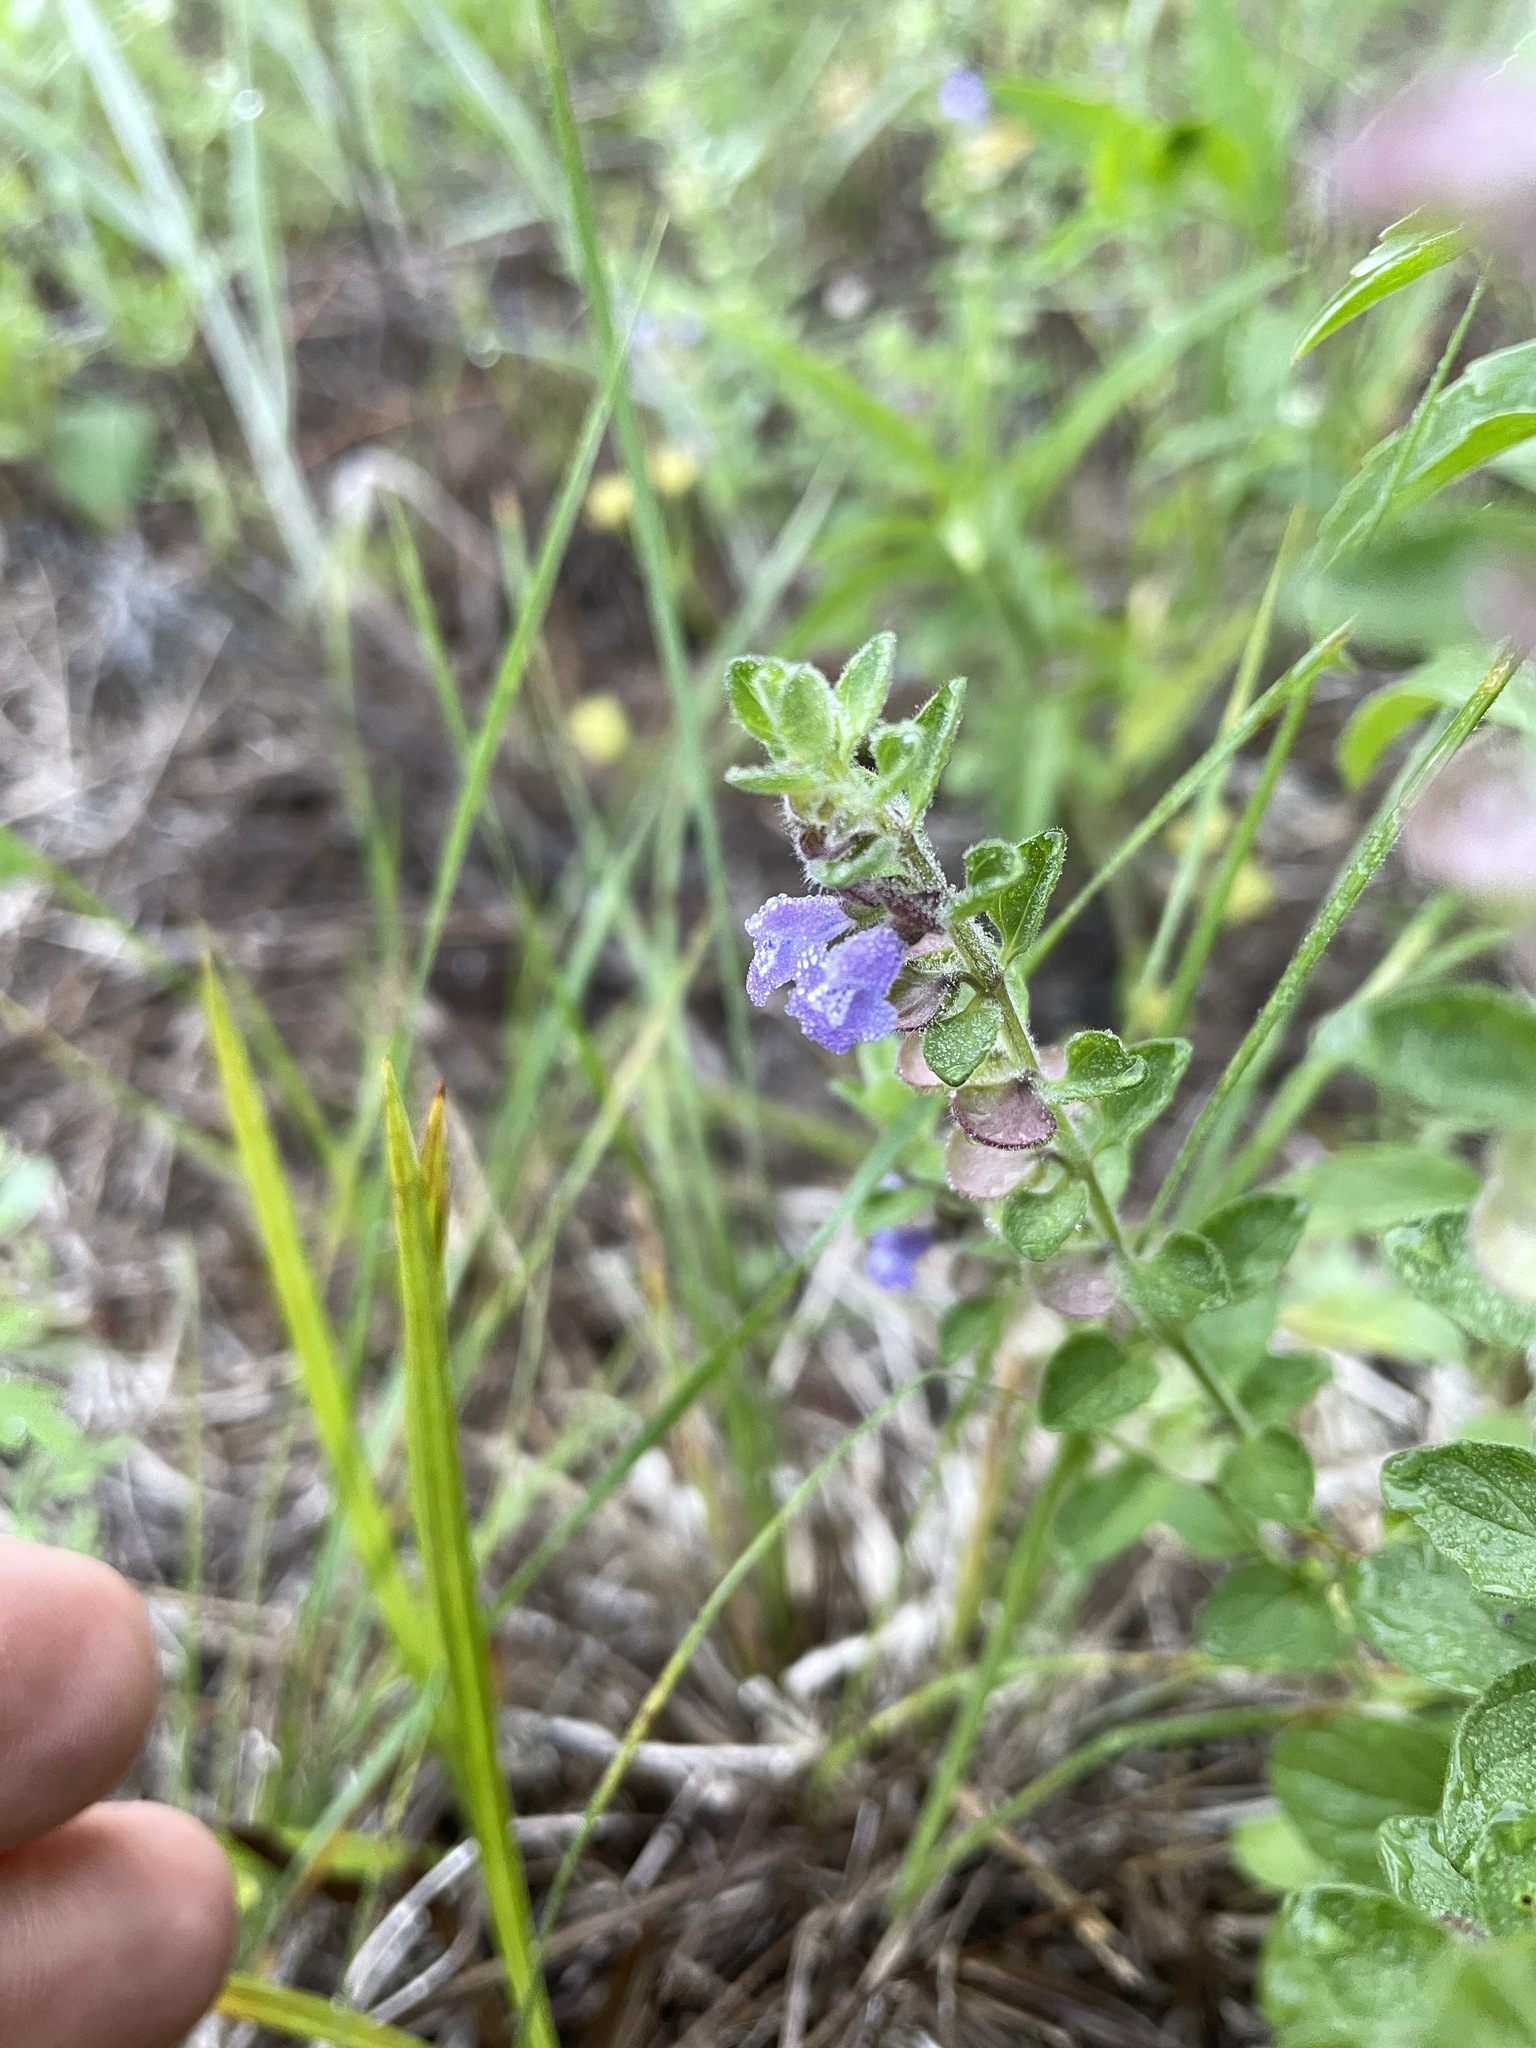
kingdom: Plantae
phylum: Tracheophyta
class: Magnoliopsida
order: Lamiales
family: Lamiaceae
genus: Scutellaria
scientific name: Scutellaria drummondii
